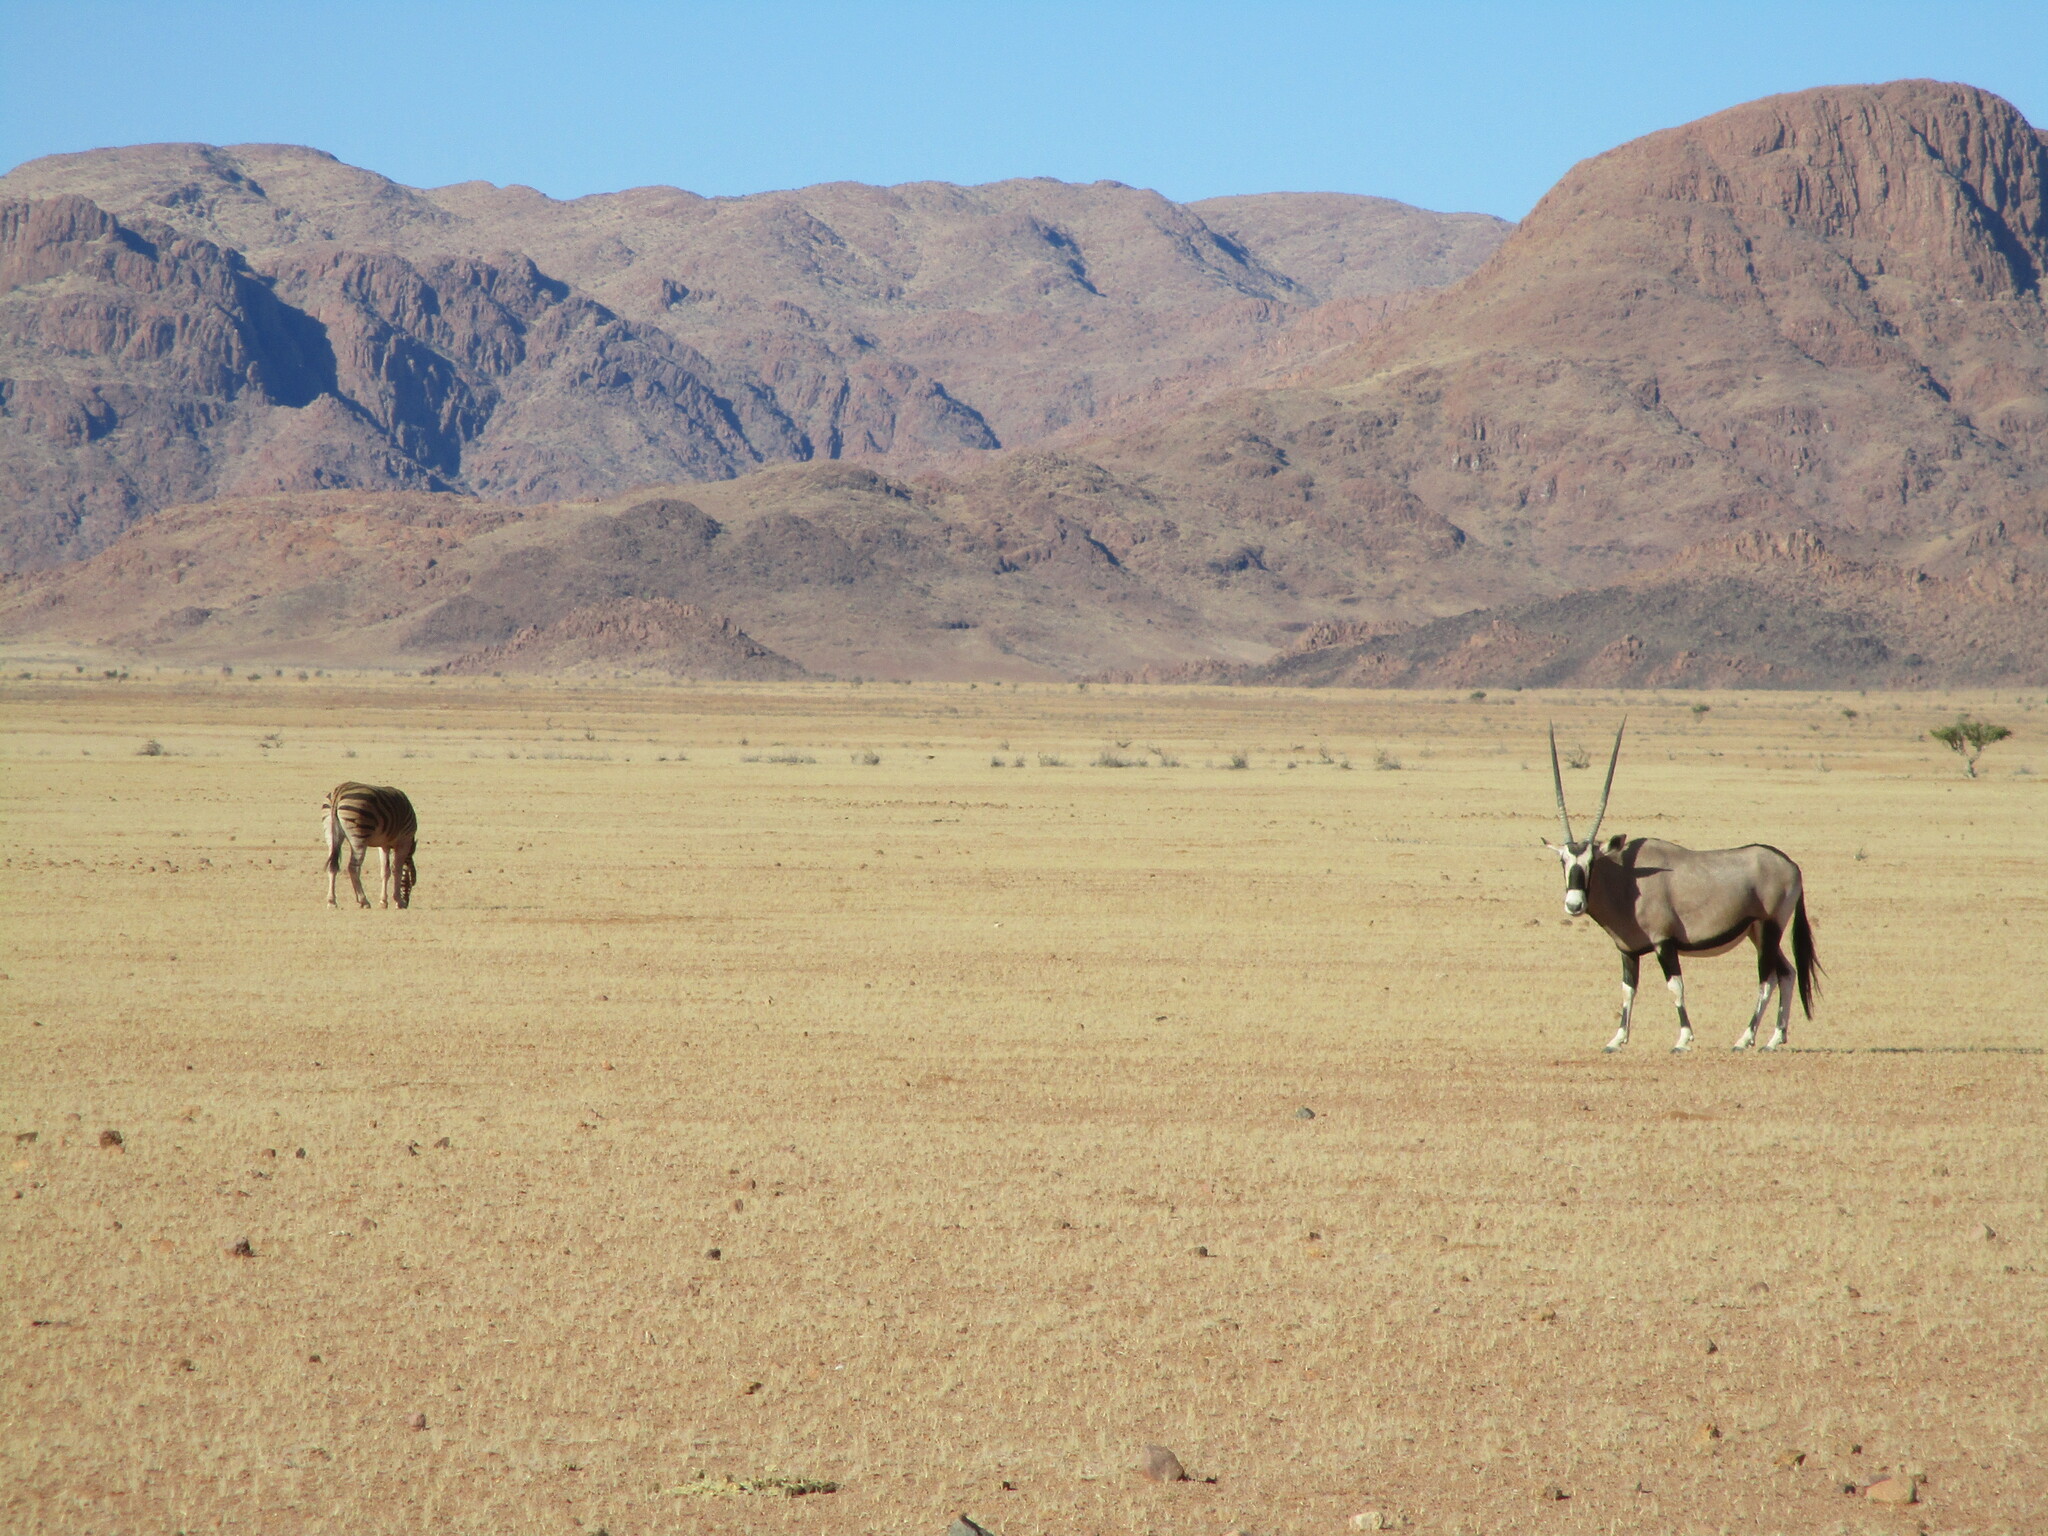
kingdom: Animalia
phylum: Chordata
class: Mammalia
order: Artiodactyla
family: Bovidae
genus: Oryx
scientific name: Oryx gazella
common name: Gemsbok
